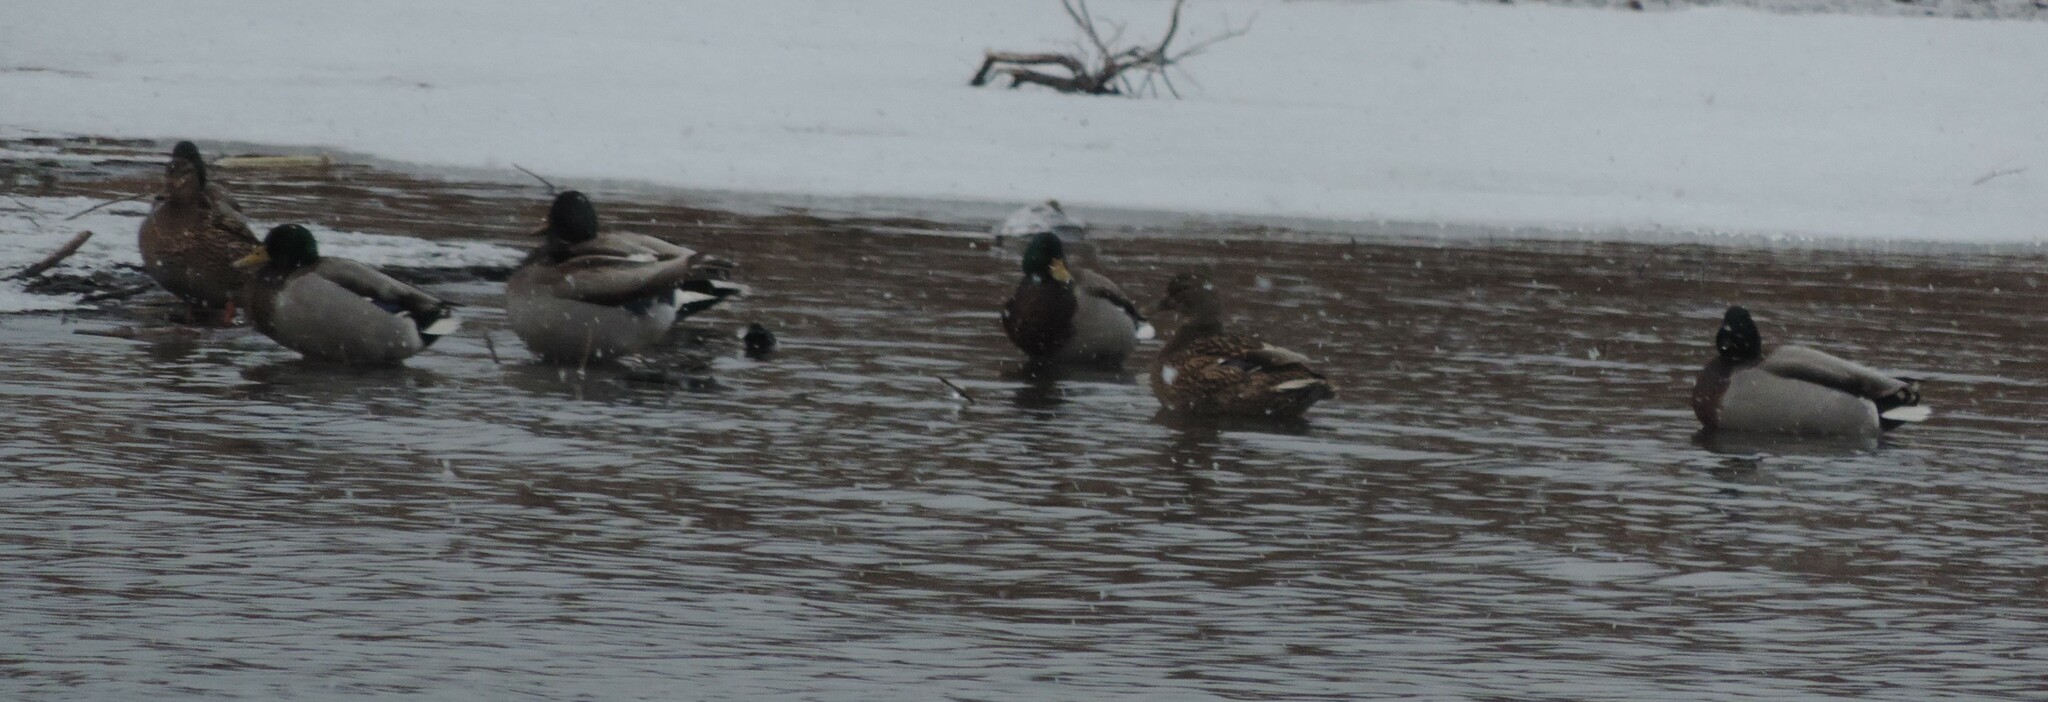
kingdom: Animalia
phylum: Chordata
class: Aves
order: Anseriformes
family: Anatidae
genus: Anas
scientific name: Anas platyrhynchos
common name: Mallard
